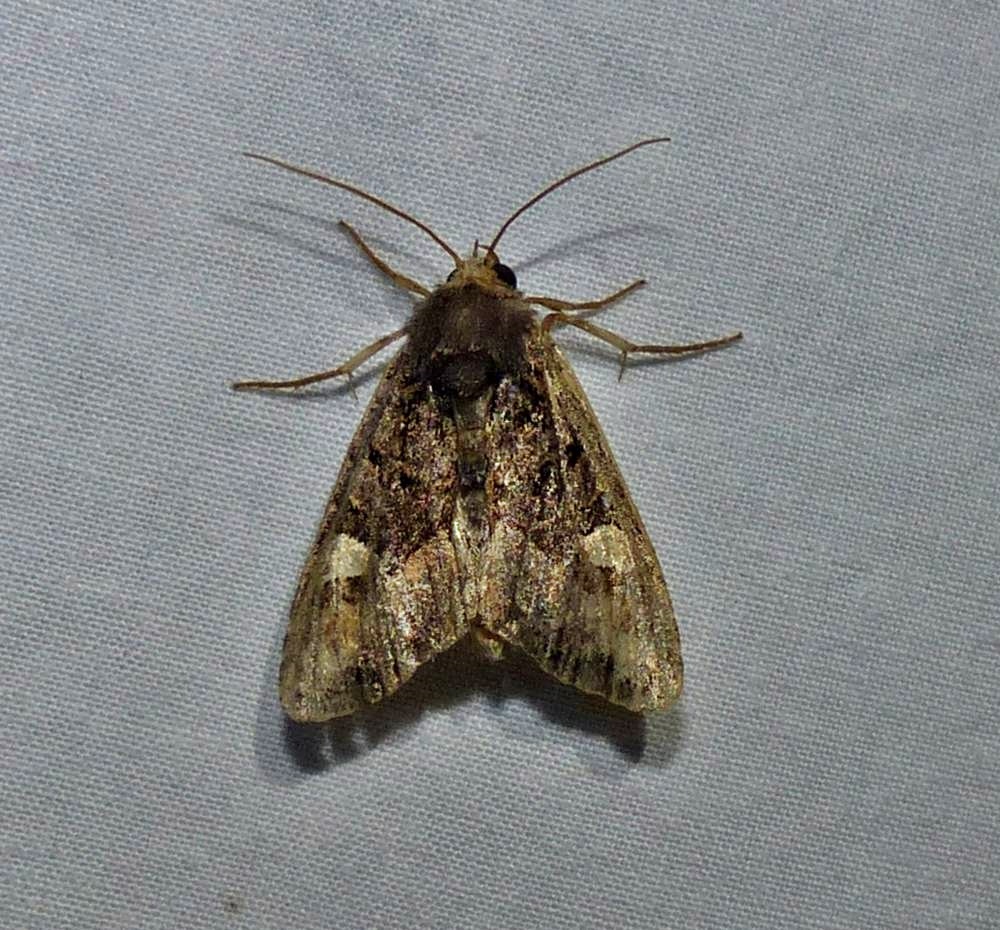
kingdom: Animalia
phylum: Arthropoda
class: Insecta
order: Lepidoptera
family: Noctuidae
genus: Euplexia
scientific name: Euplexia benesimilis
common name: American angle shades
